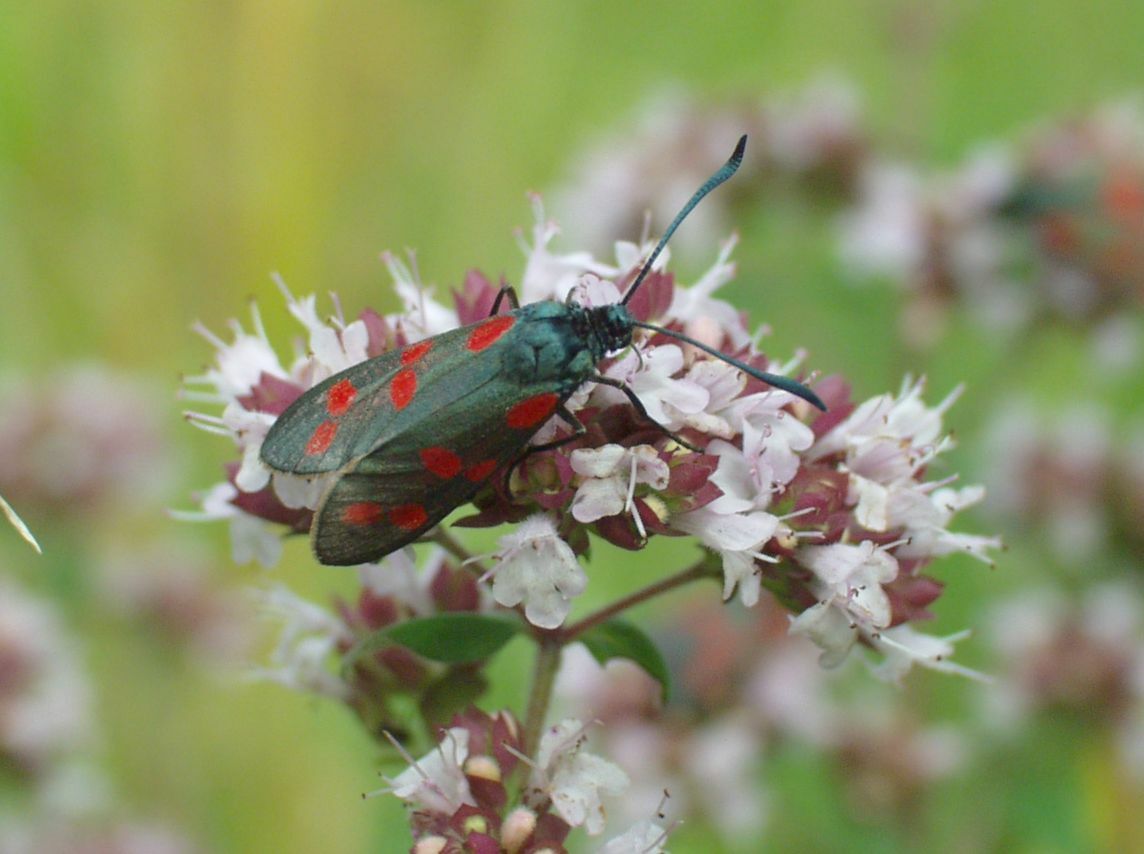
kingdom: Animalia
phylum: Arthropoda
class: Insecta
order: Lepidoptera
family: Zygaenidae
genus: Zygaena
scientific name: Zygaena filipendulae
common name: Six-spot burnet
